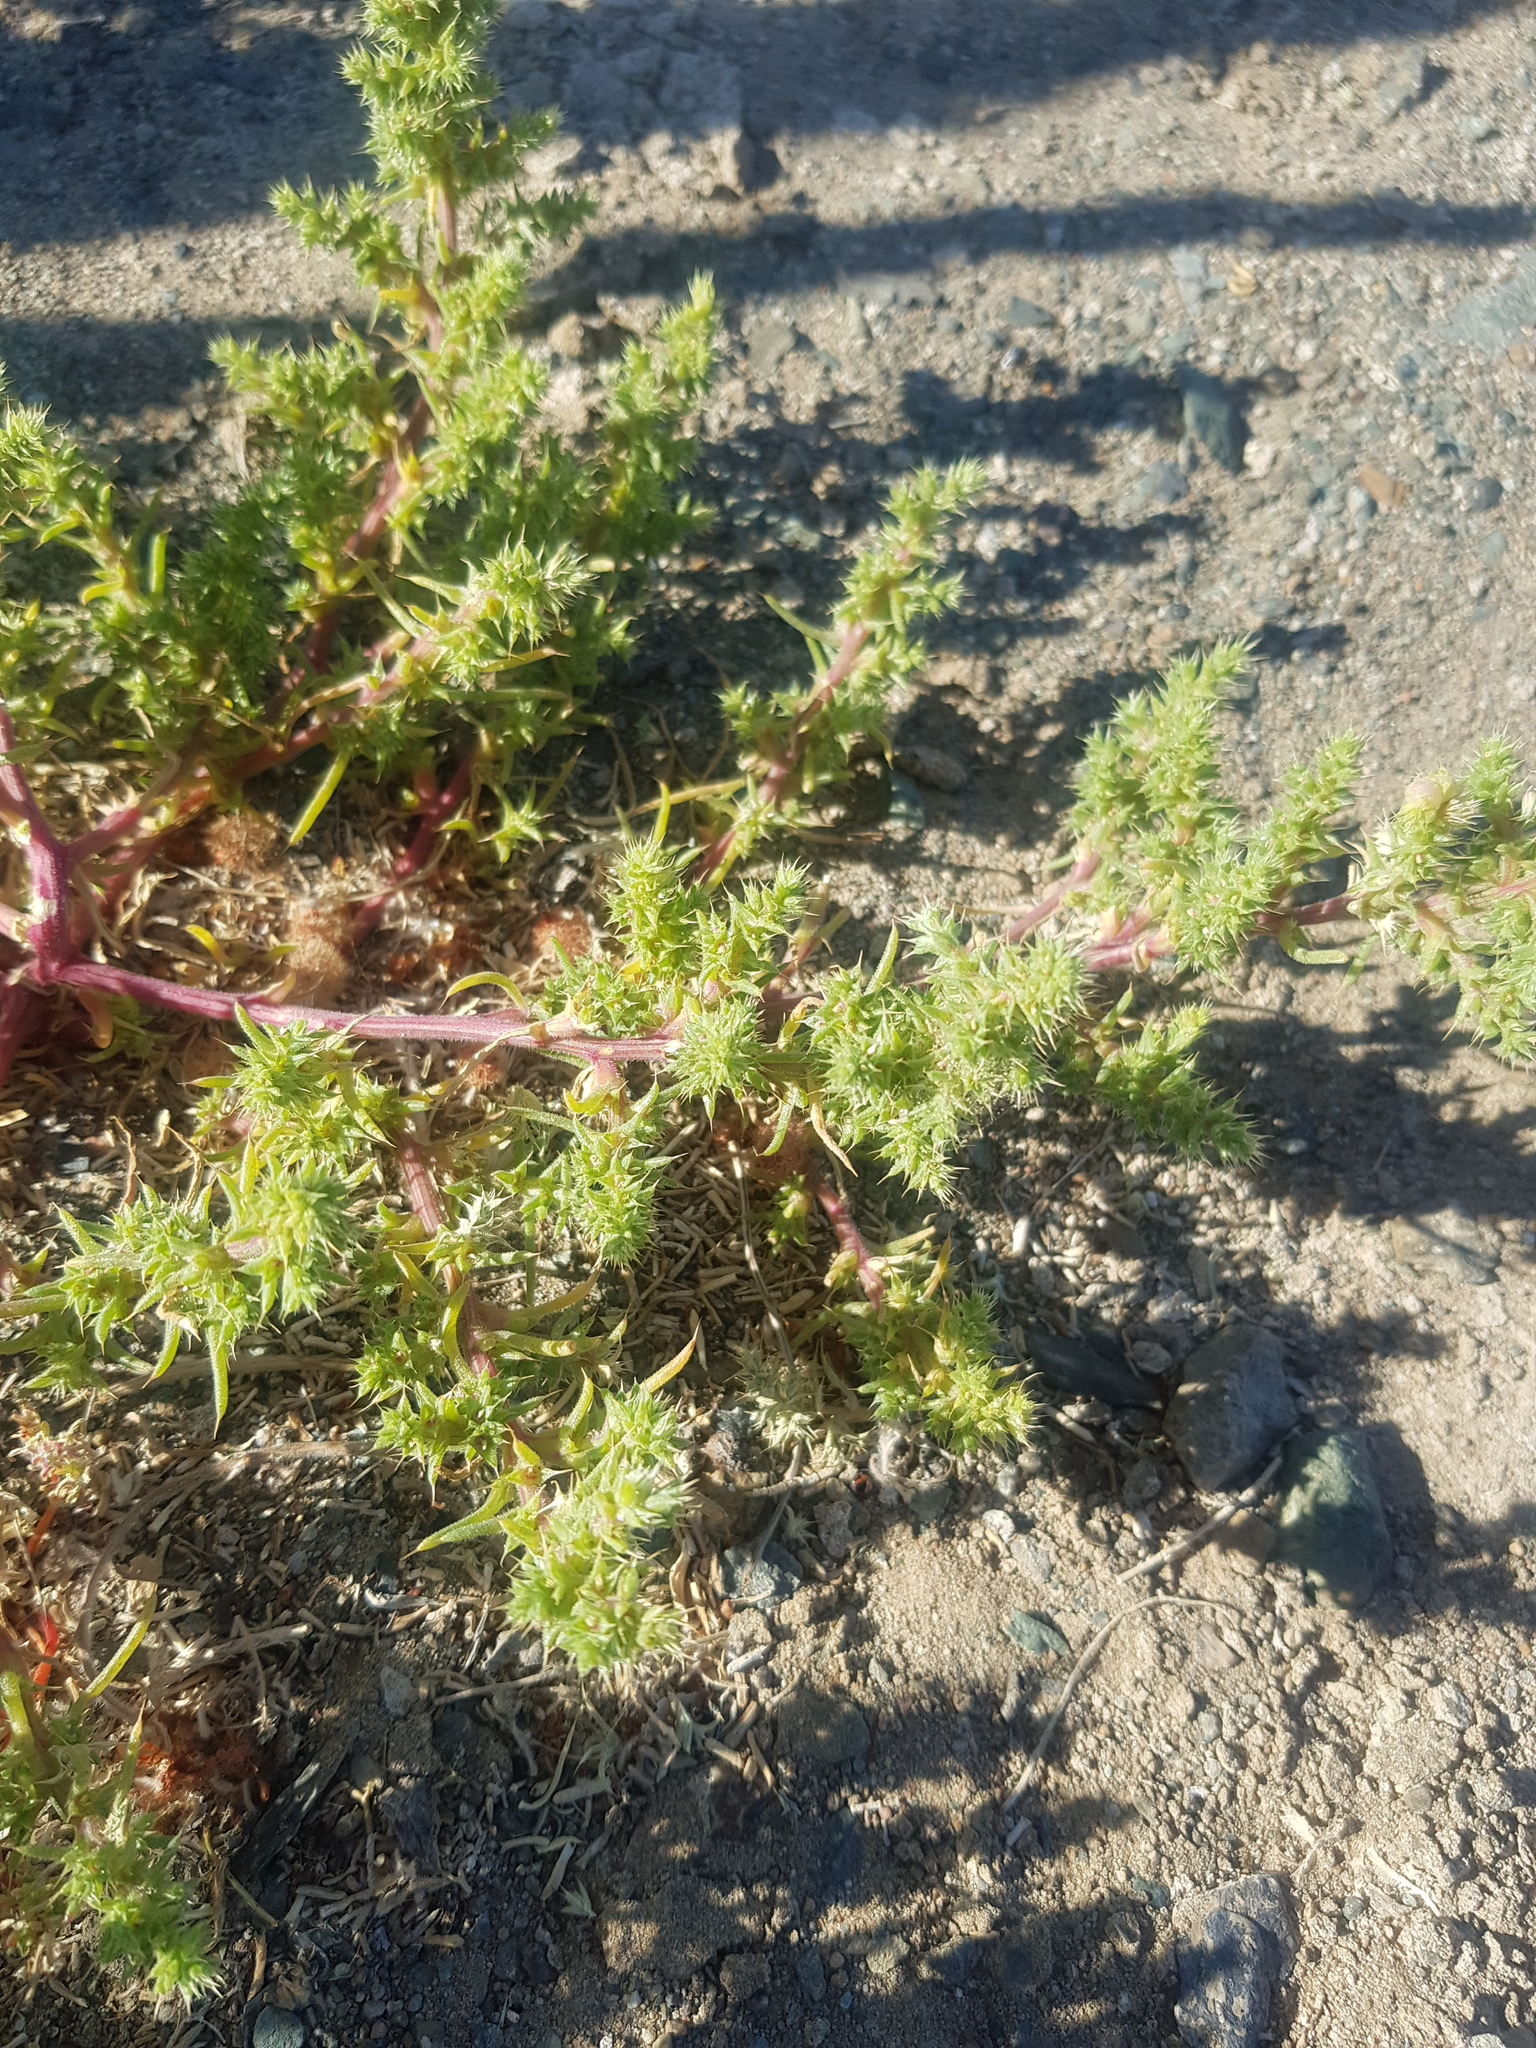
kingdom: Plantae
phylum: Tracheophyta
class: Magnoliopsida
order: Caryophyllales
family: Amaranthaceae
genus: Salsola
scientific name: Salsola tragus
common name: Prickly russian thistle
